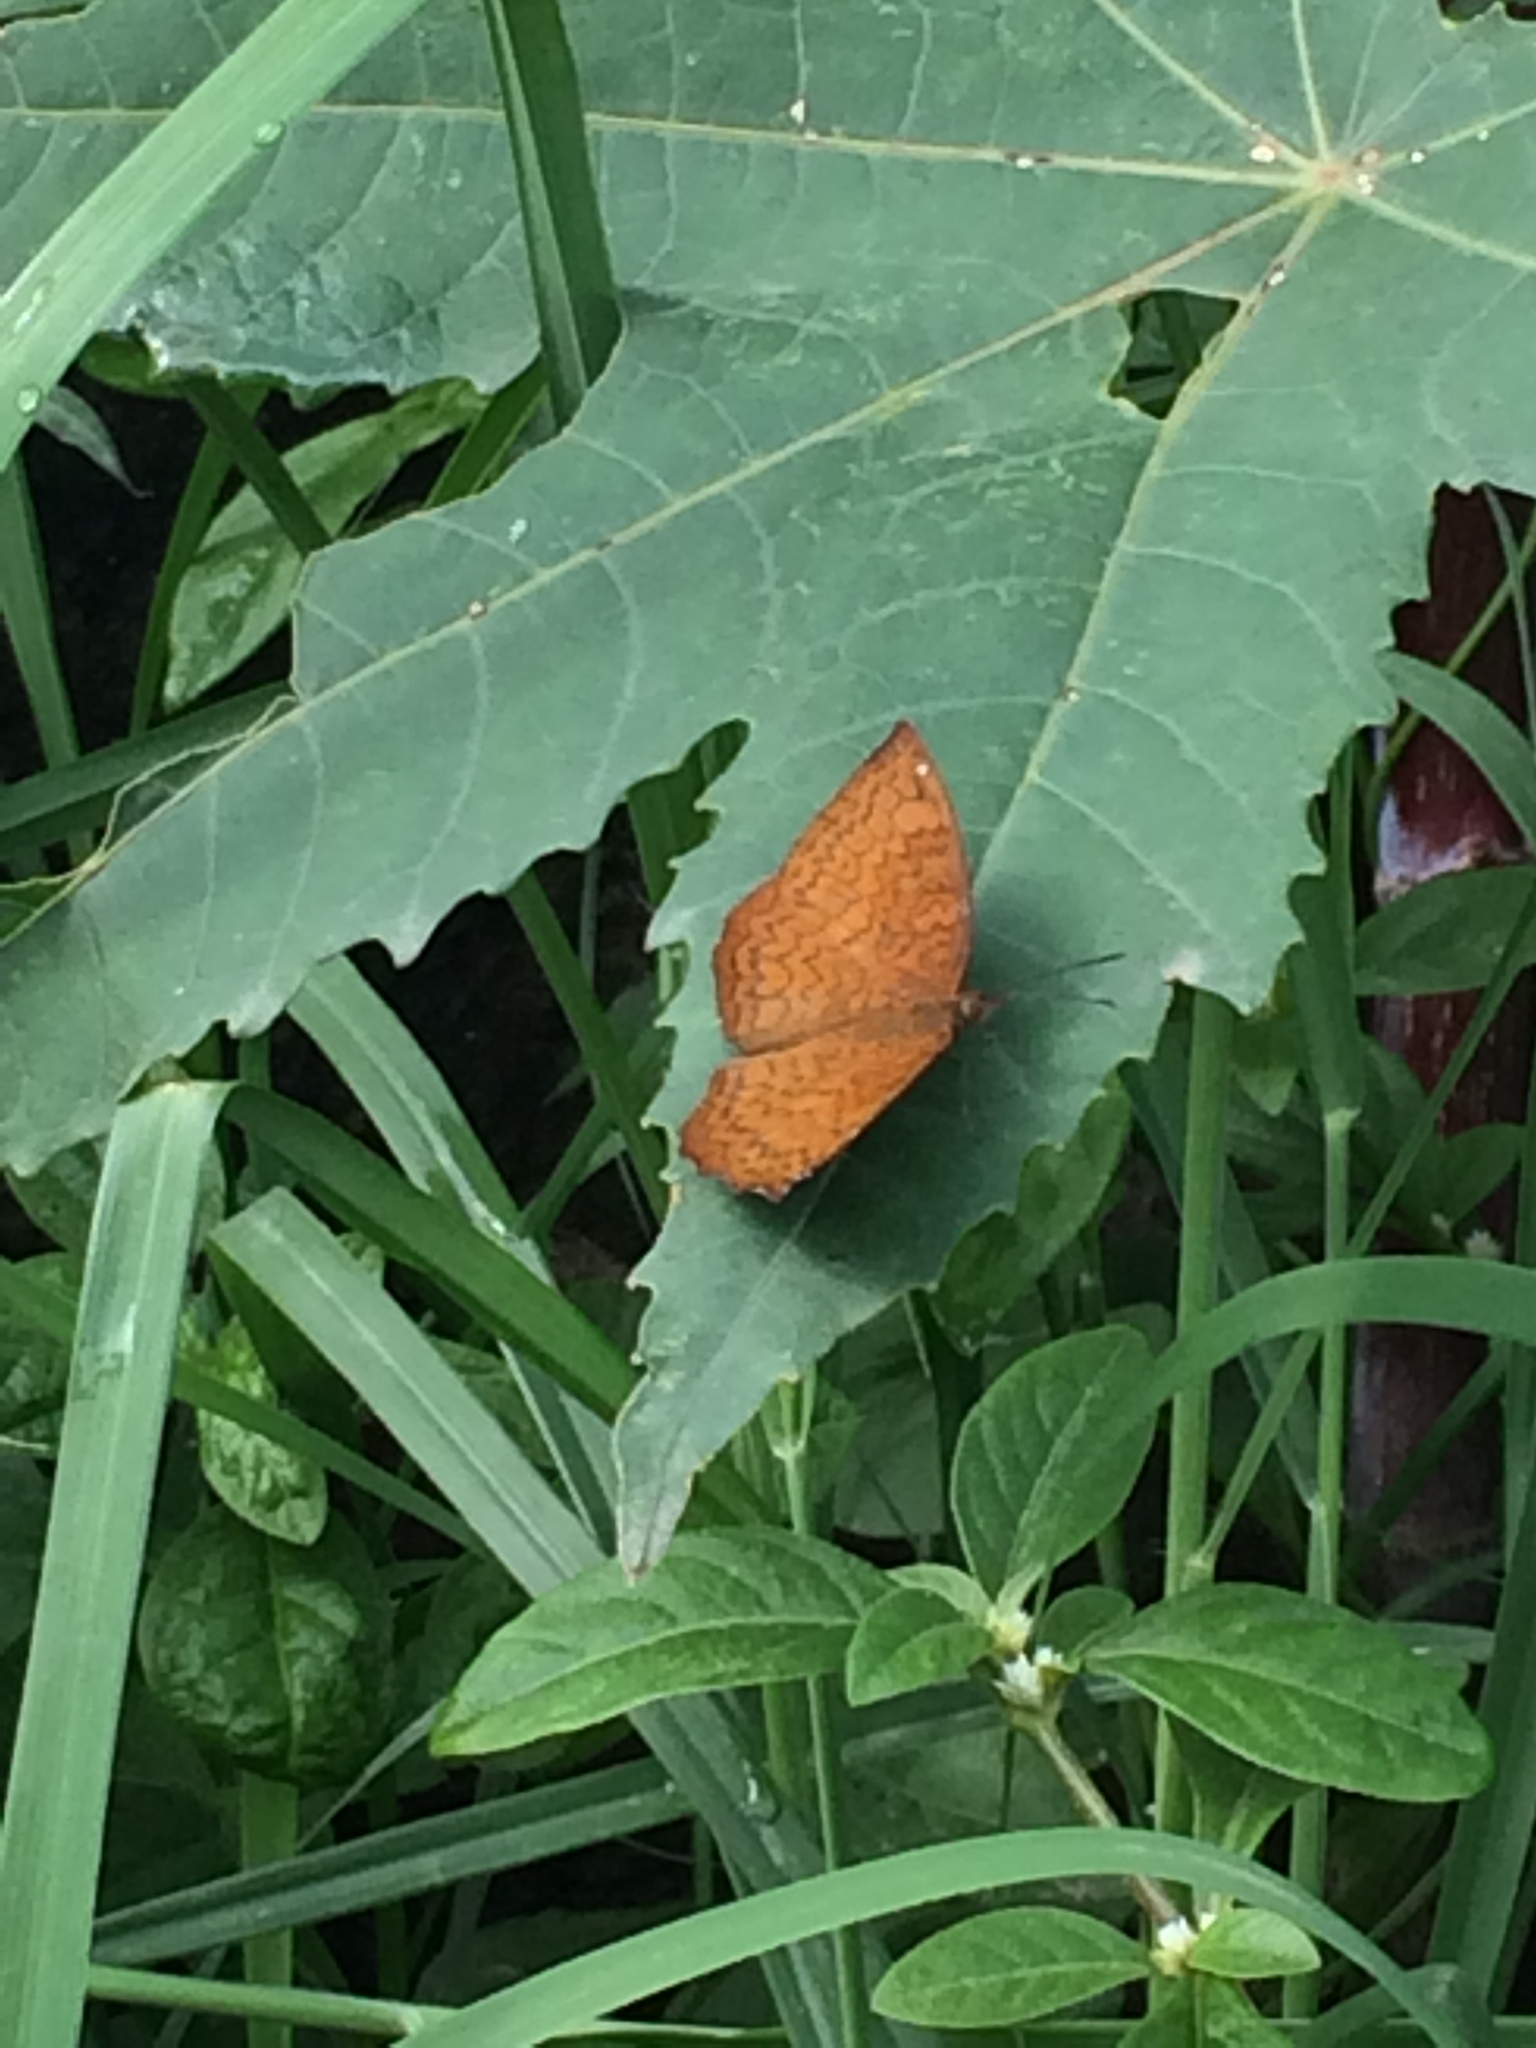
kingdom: Animalia
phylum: Arthropoda
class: Insecta
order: Lepidoptera
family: Nymphalidae
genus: Ariadne
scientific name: Ariadne merione
